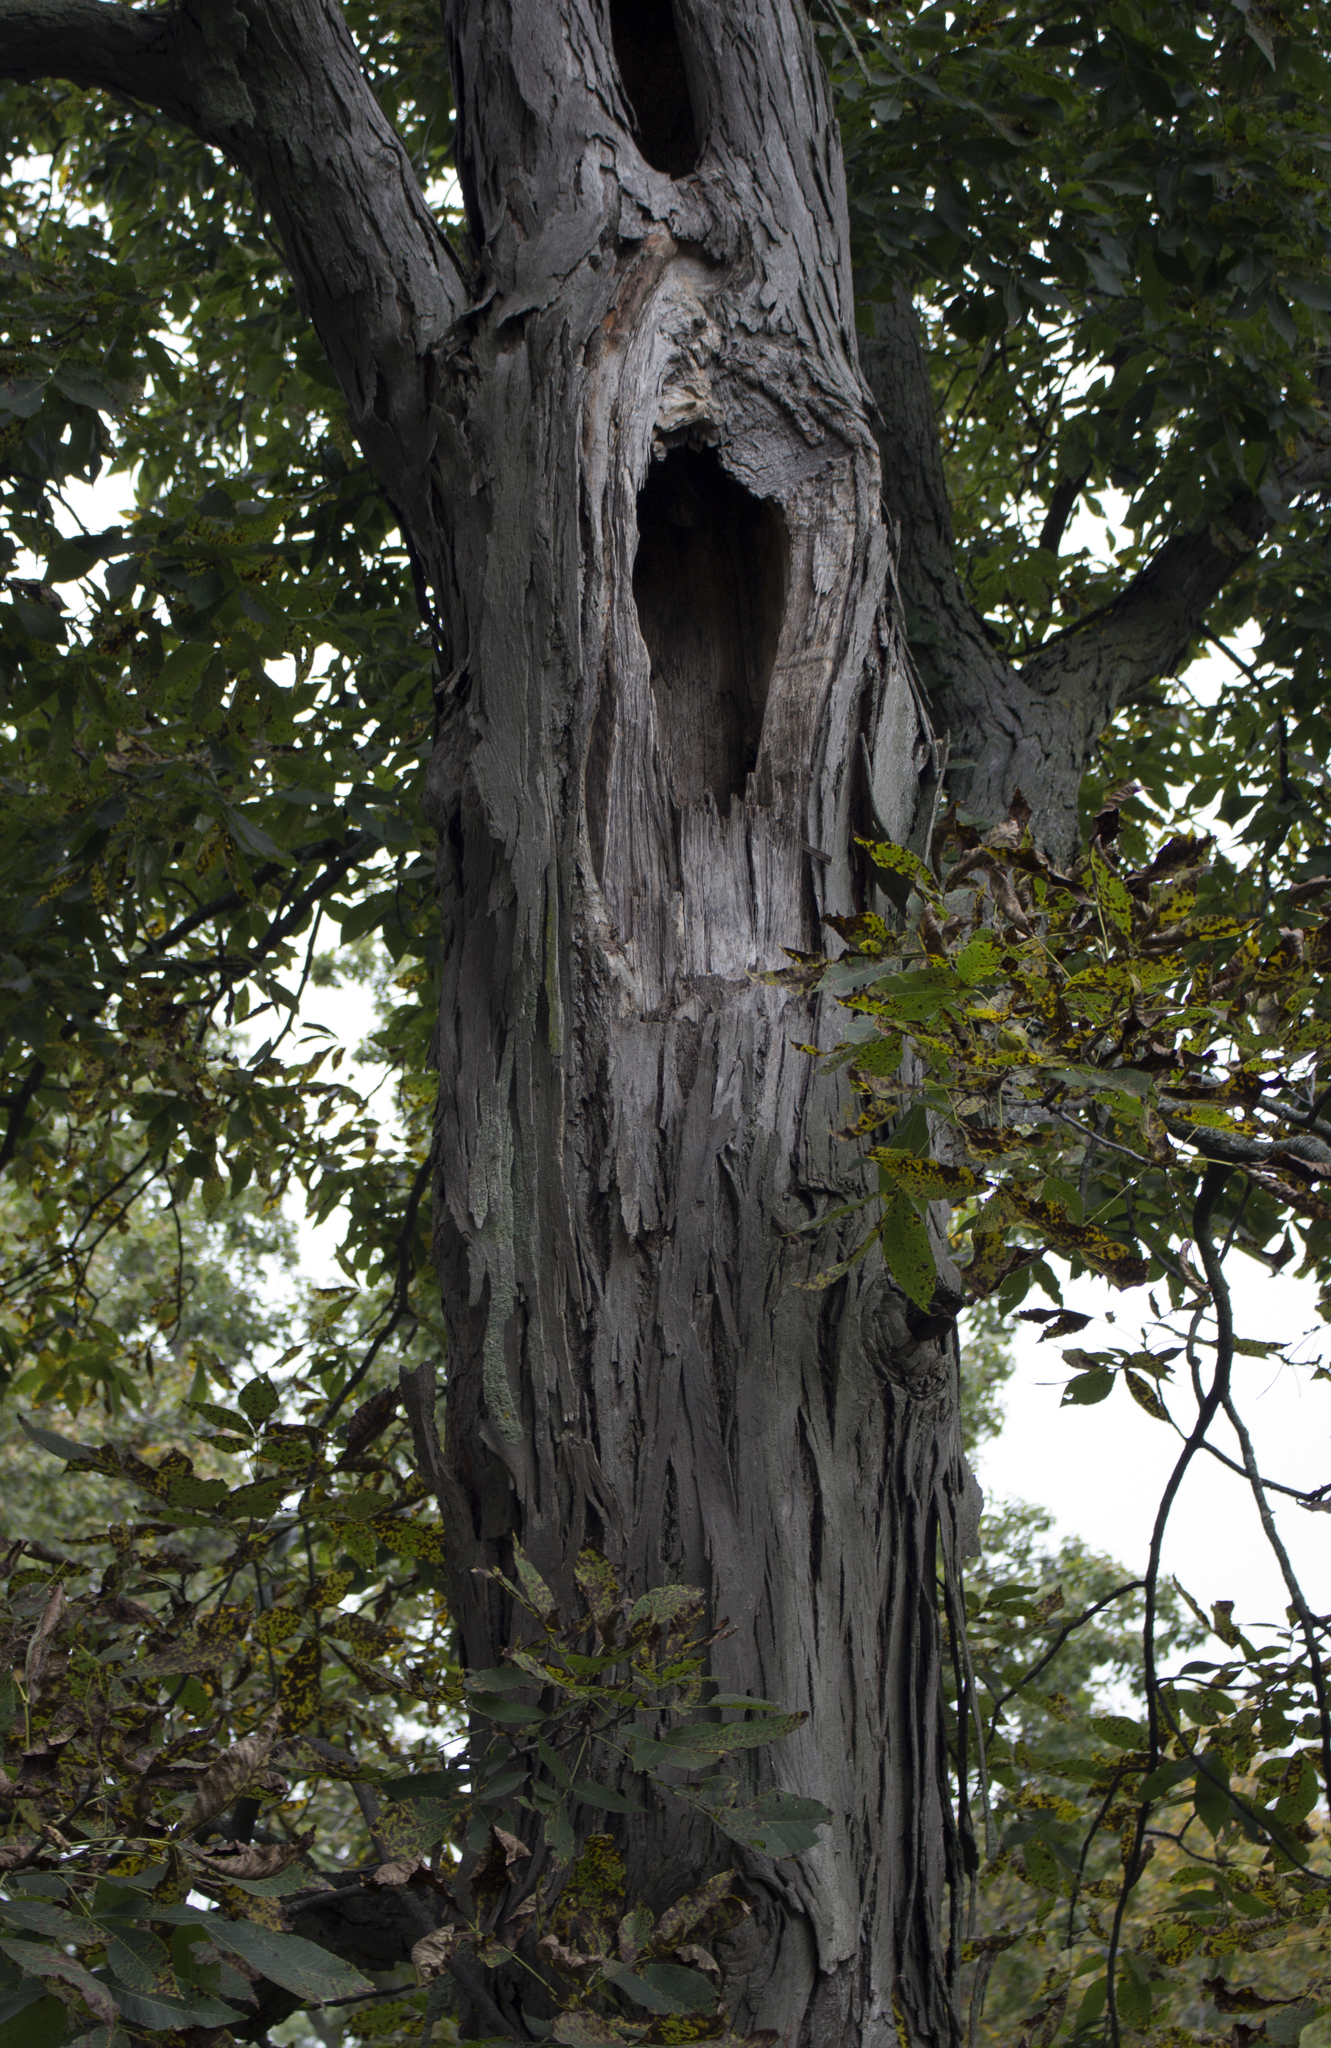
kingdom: Plantae
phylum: Tracheophyta
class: Magnoliopsida
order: Fagales
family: Juglandaceae
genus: Carya
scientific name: Carya ovata
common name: Shagbark hickory
